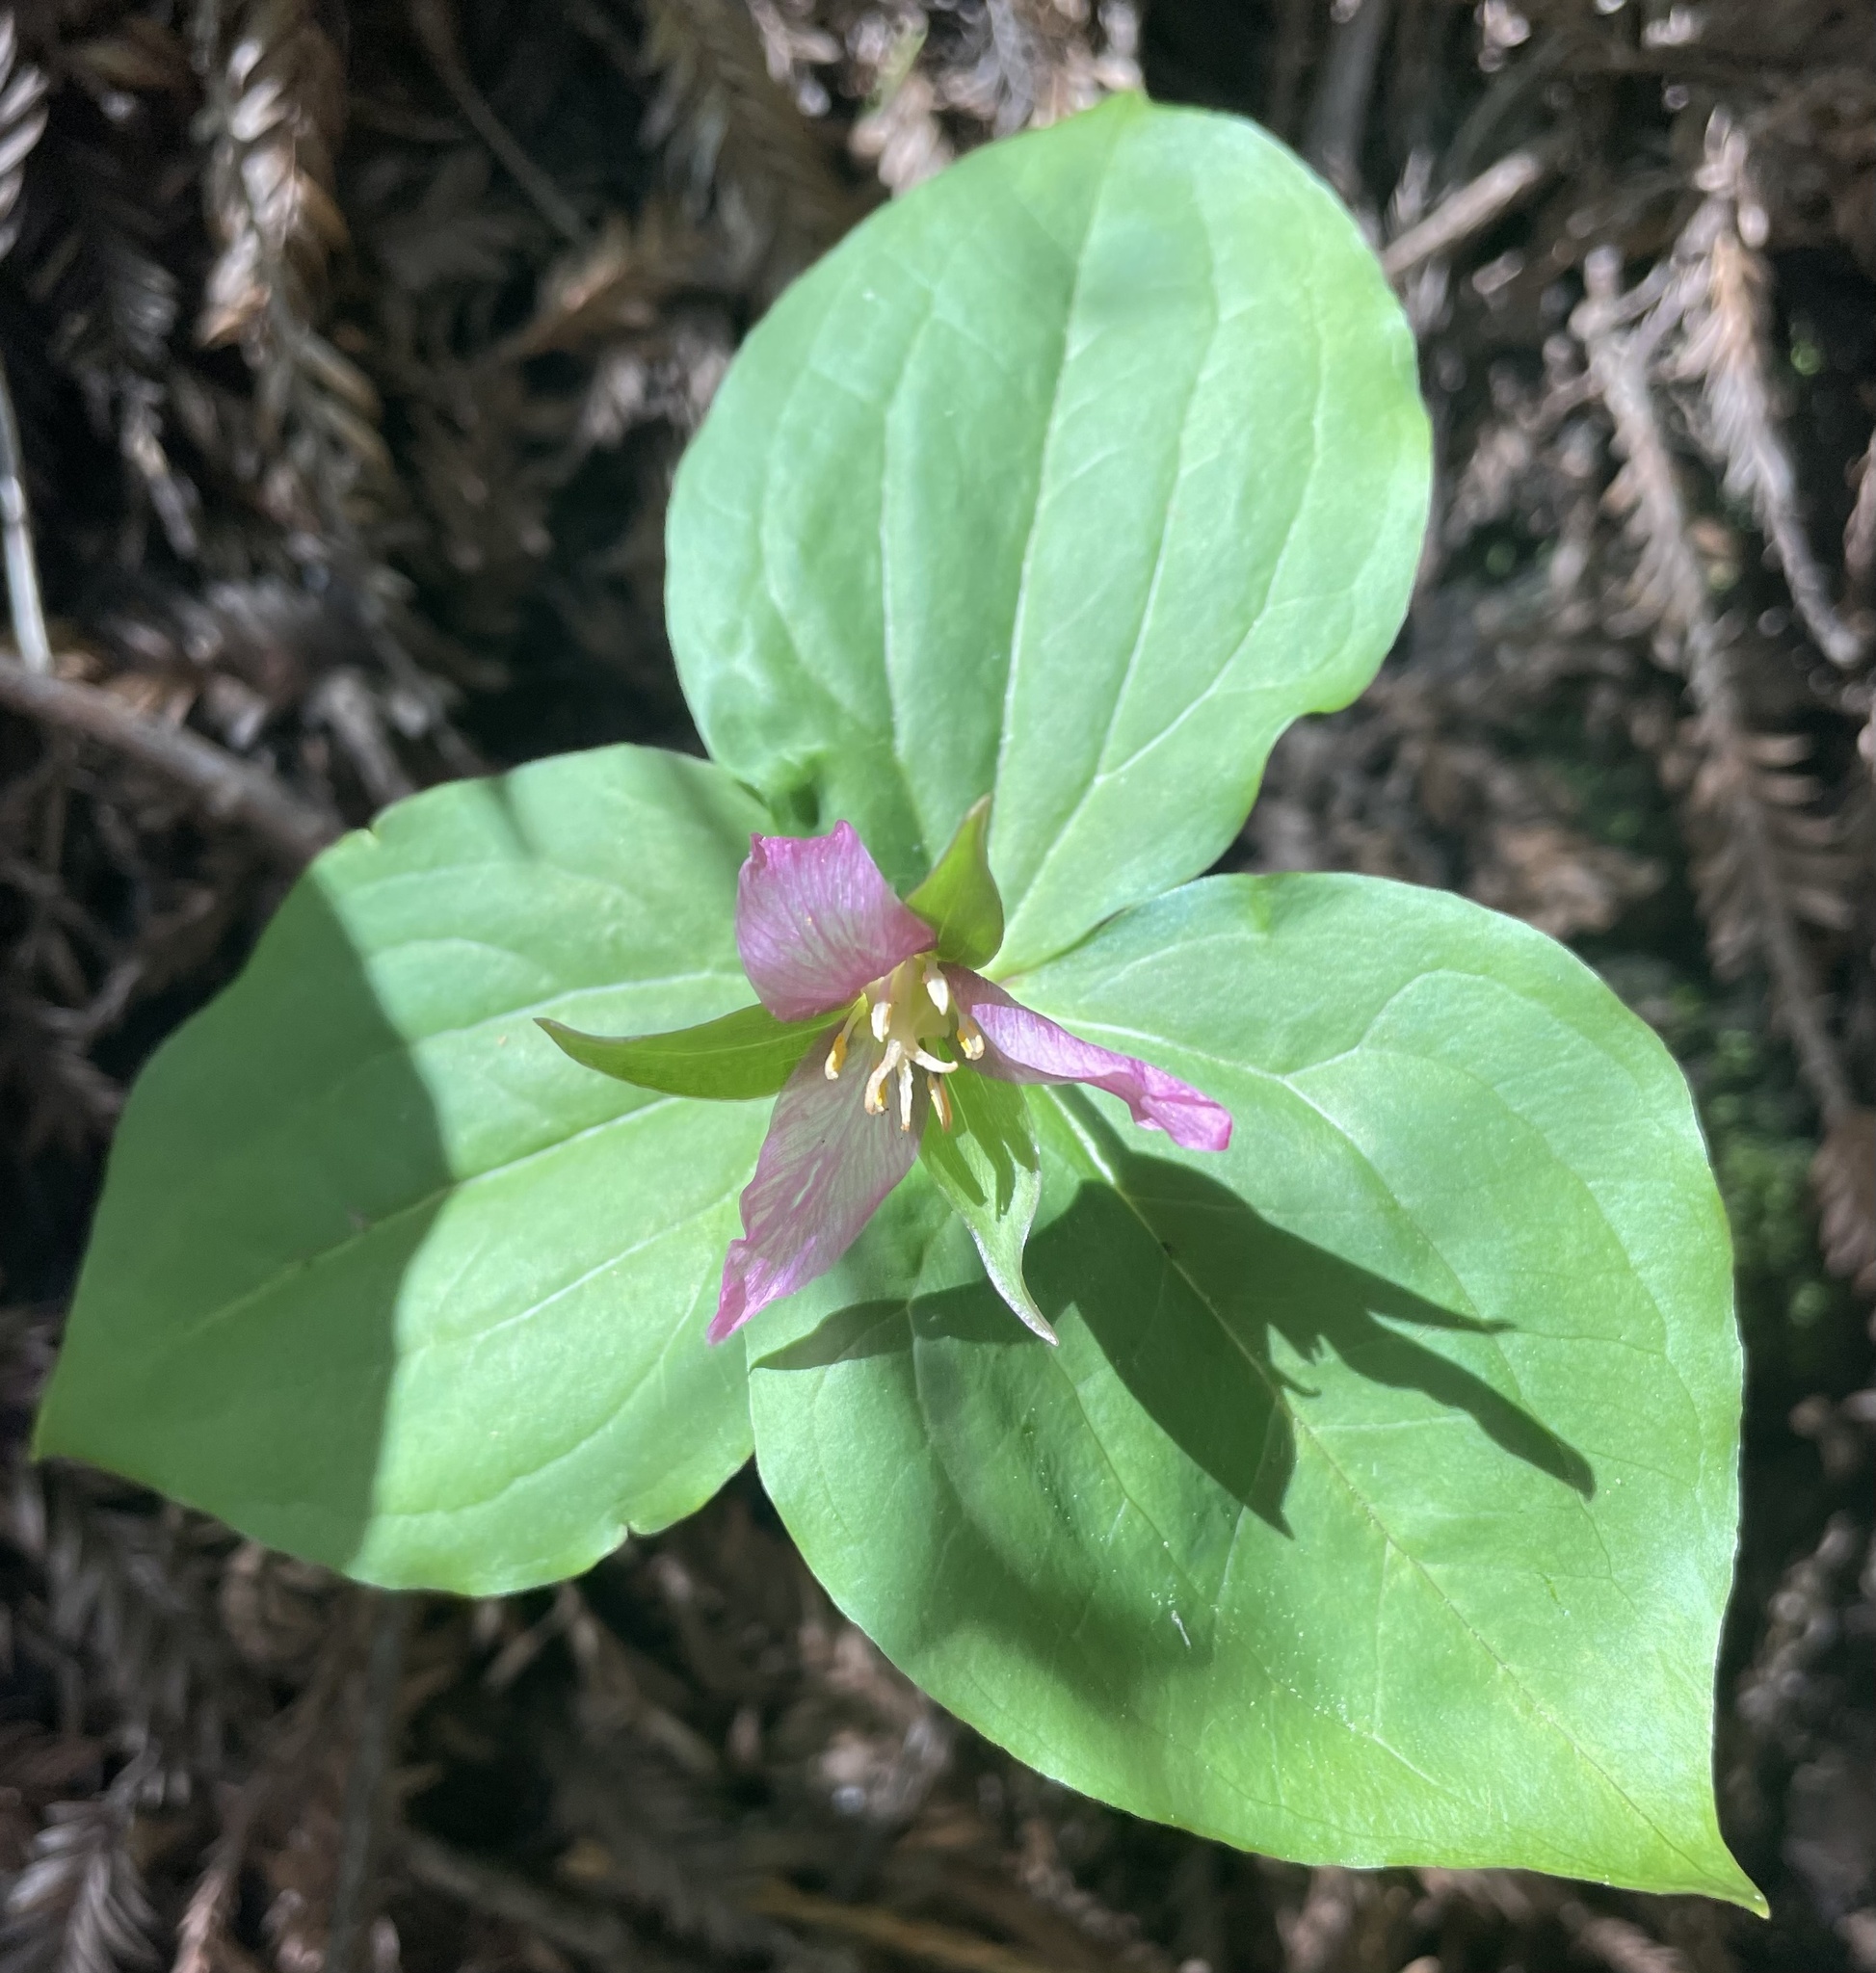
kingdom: Plantae
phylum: Tracheophyta
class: Liliopsida
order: Liliales
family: Melanthiaceae
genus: Trillium
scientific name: Trillium ovatum
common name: Pacific trillium
